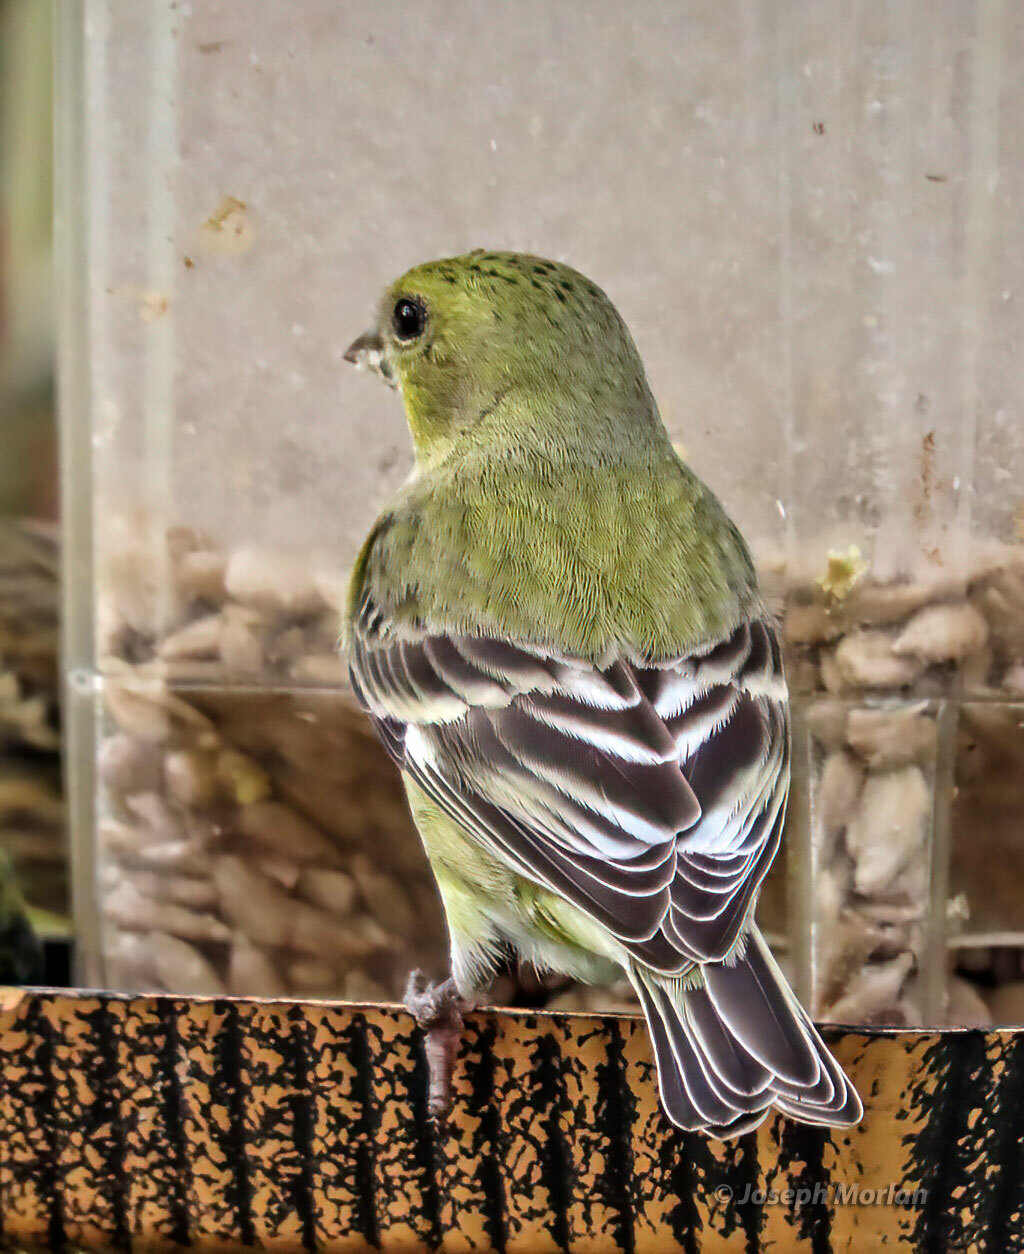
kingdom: Animalia
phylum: Chordata
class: Aves
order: Passeriformes
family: Fringillidae
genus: Spinus
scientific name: Spinus psaltria
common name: Lesser goldfinch
